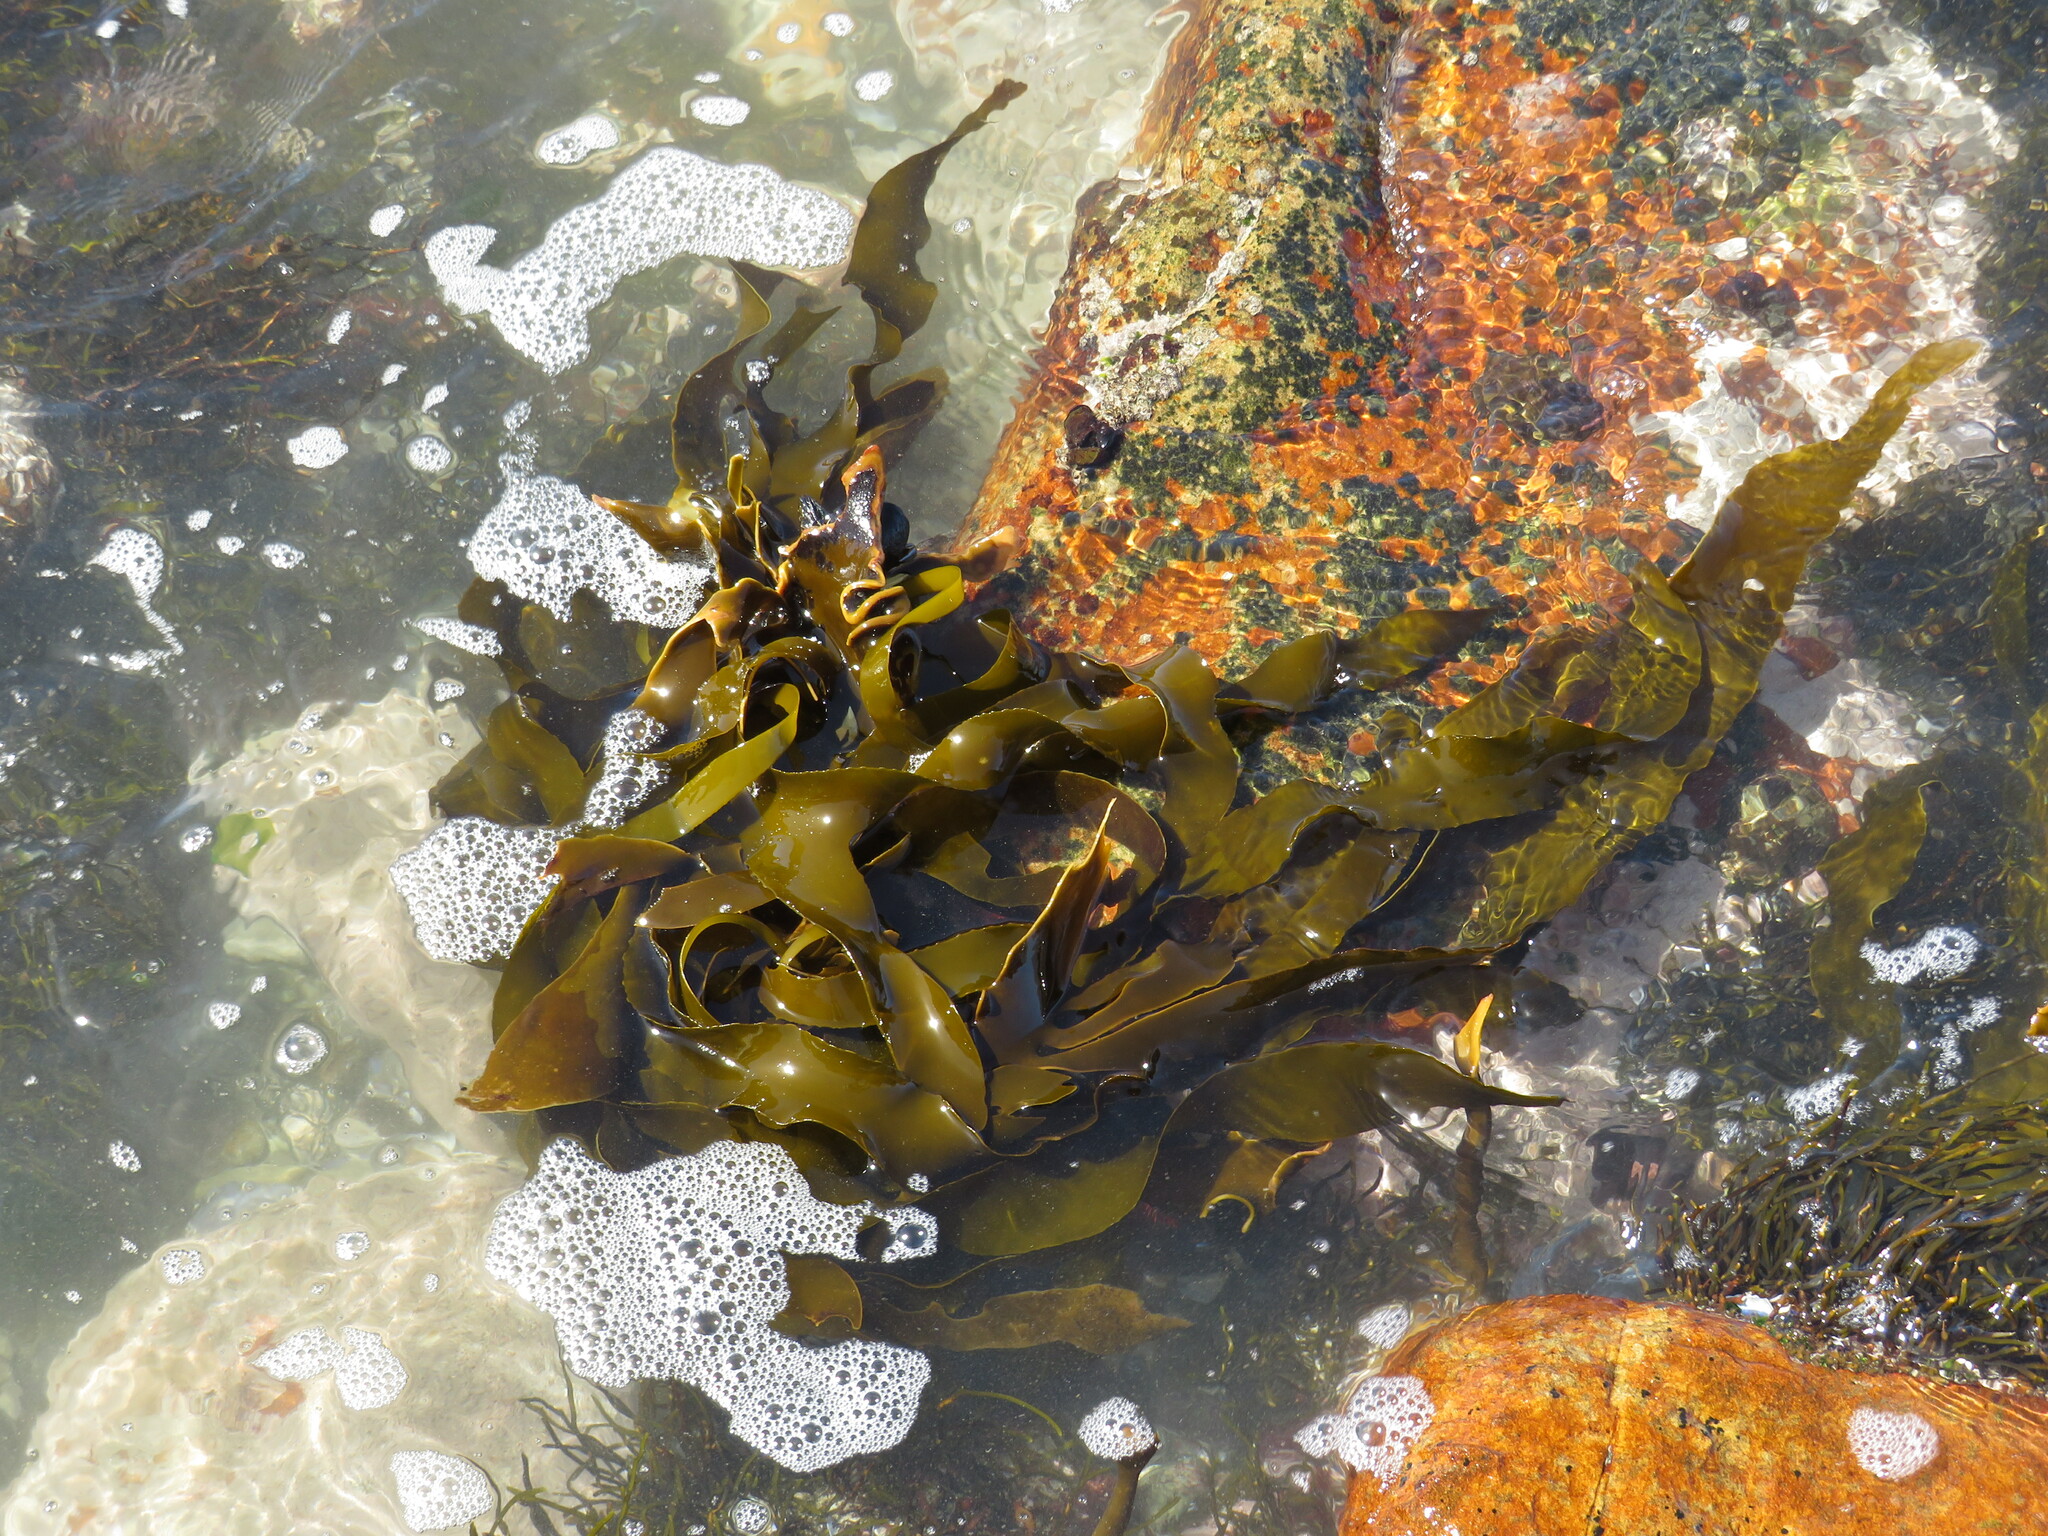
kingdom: Chromista
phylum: Ochrophyta
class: Phaeophyceae
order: Laminariales
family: Lessoniaceae
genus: Ecklonia
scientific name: Ecklonia
